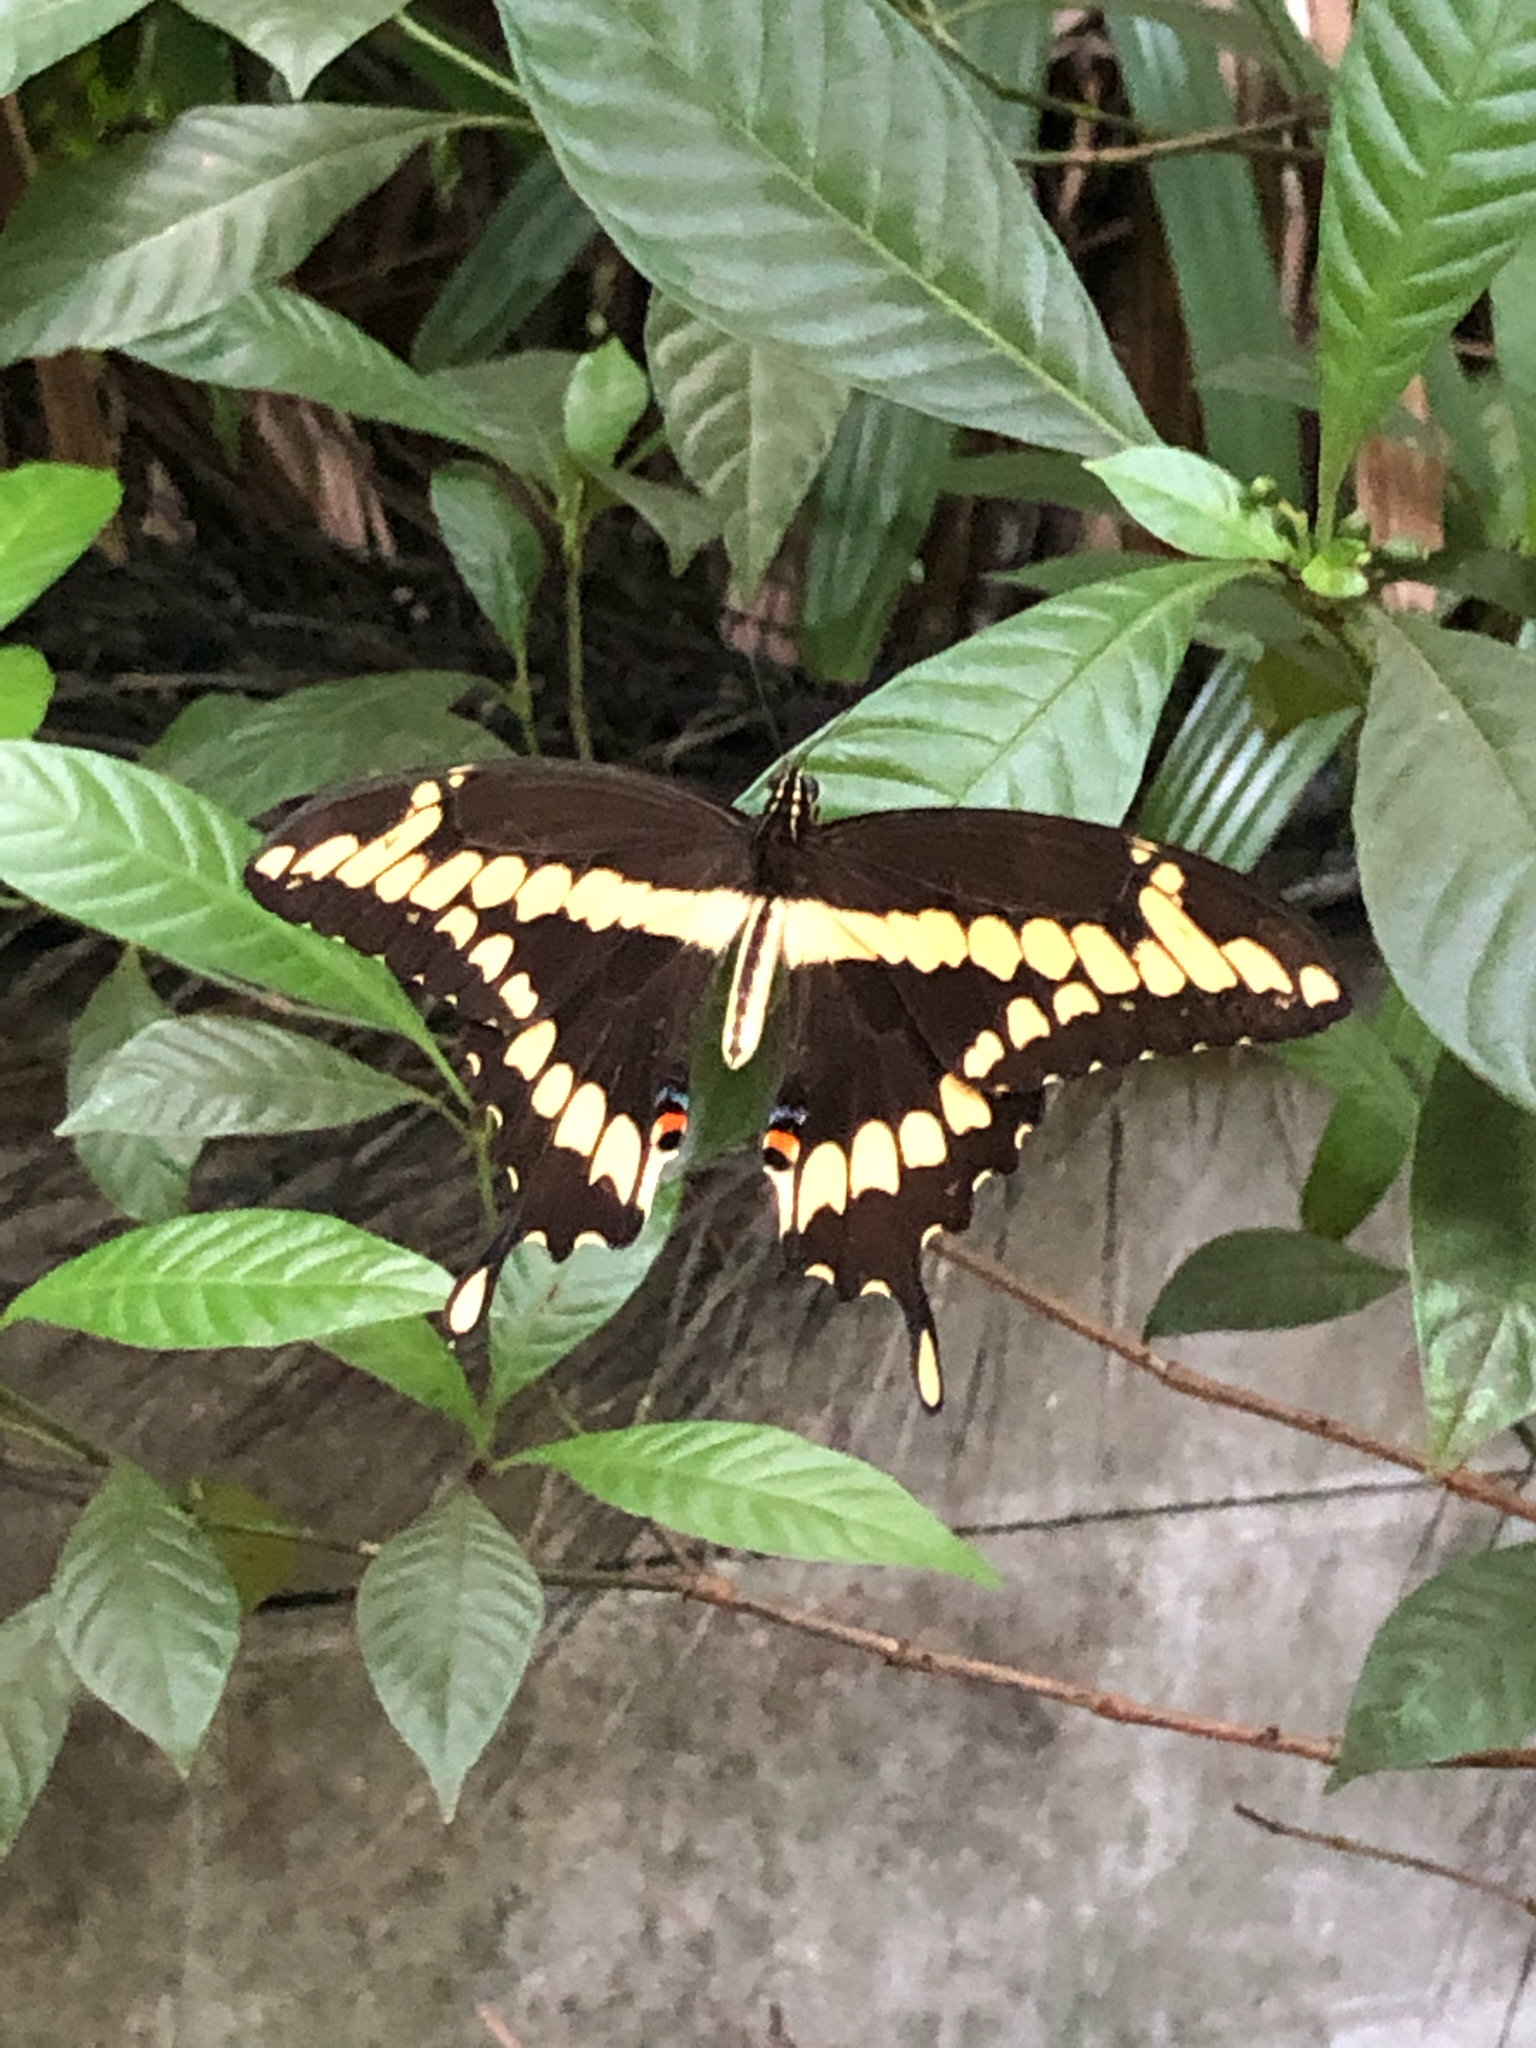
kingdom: Animalia
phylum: Arthropoda
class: Insecta
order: Lepidoptera
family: Papilionidae
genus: Papilio
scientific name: Papilio cresphontes
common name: Giant swallowtail
